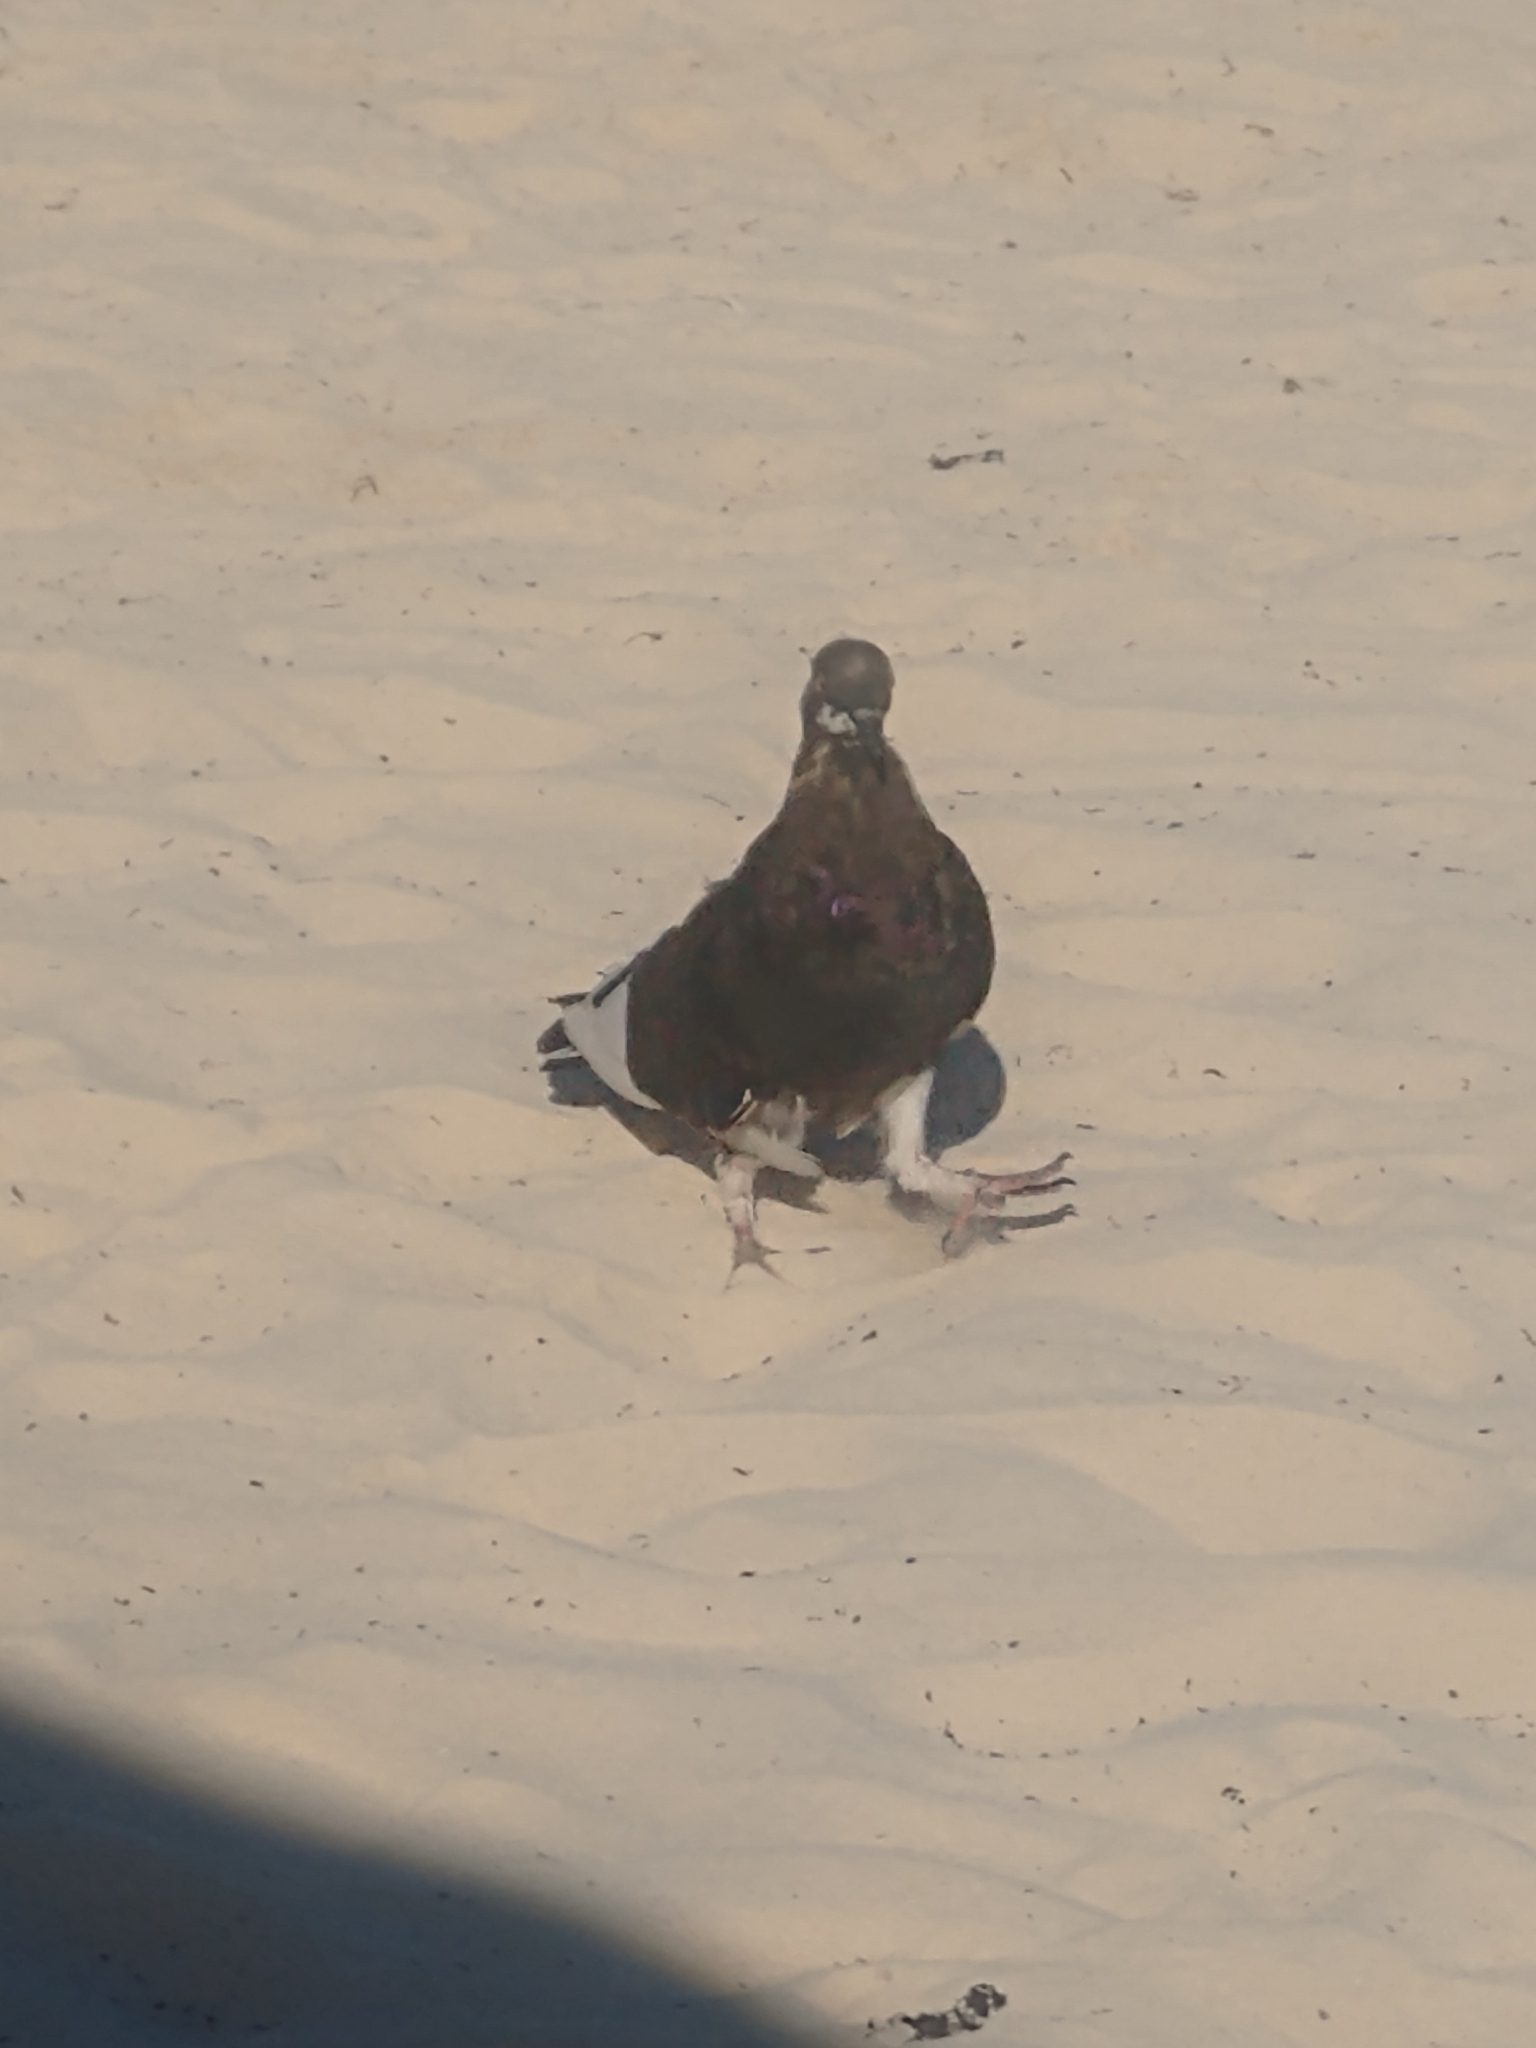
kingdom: Animalia
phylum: Chordata
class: Aves
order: Columbiformes
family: Columbidae
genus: Columba
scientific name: Columba livia
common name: Rock pigeon
